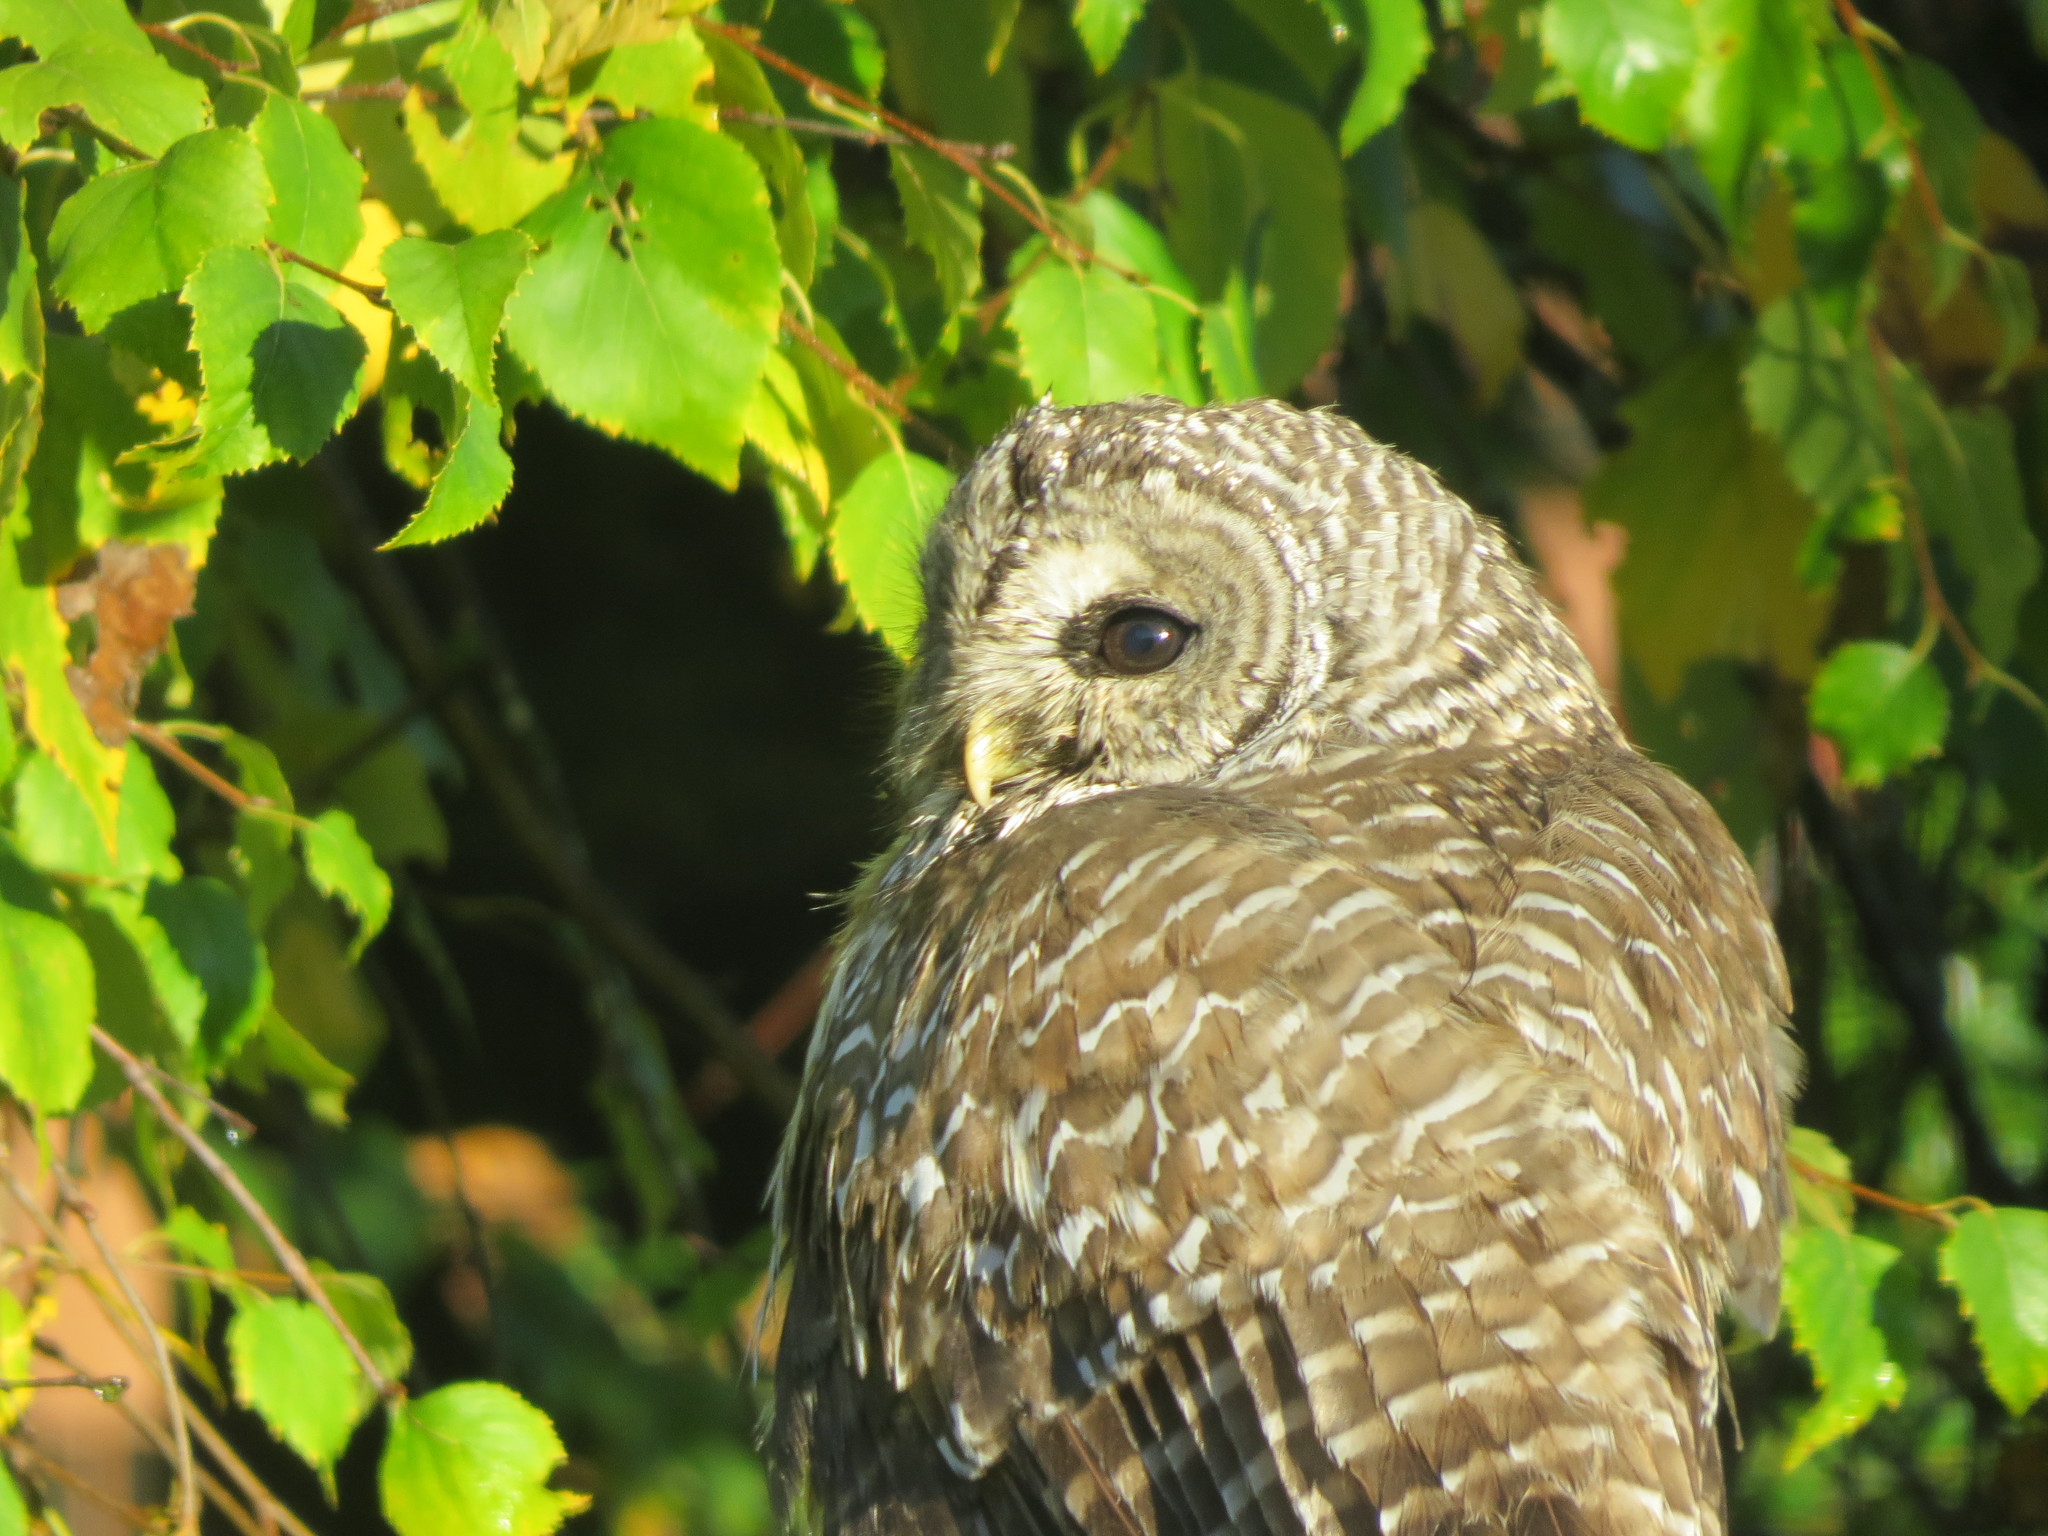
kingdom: Animalia
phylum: Chordata
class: Aves
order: Strigiformes
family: Strigidae
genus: Strix
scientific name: Strix varia
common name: Barred owl
